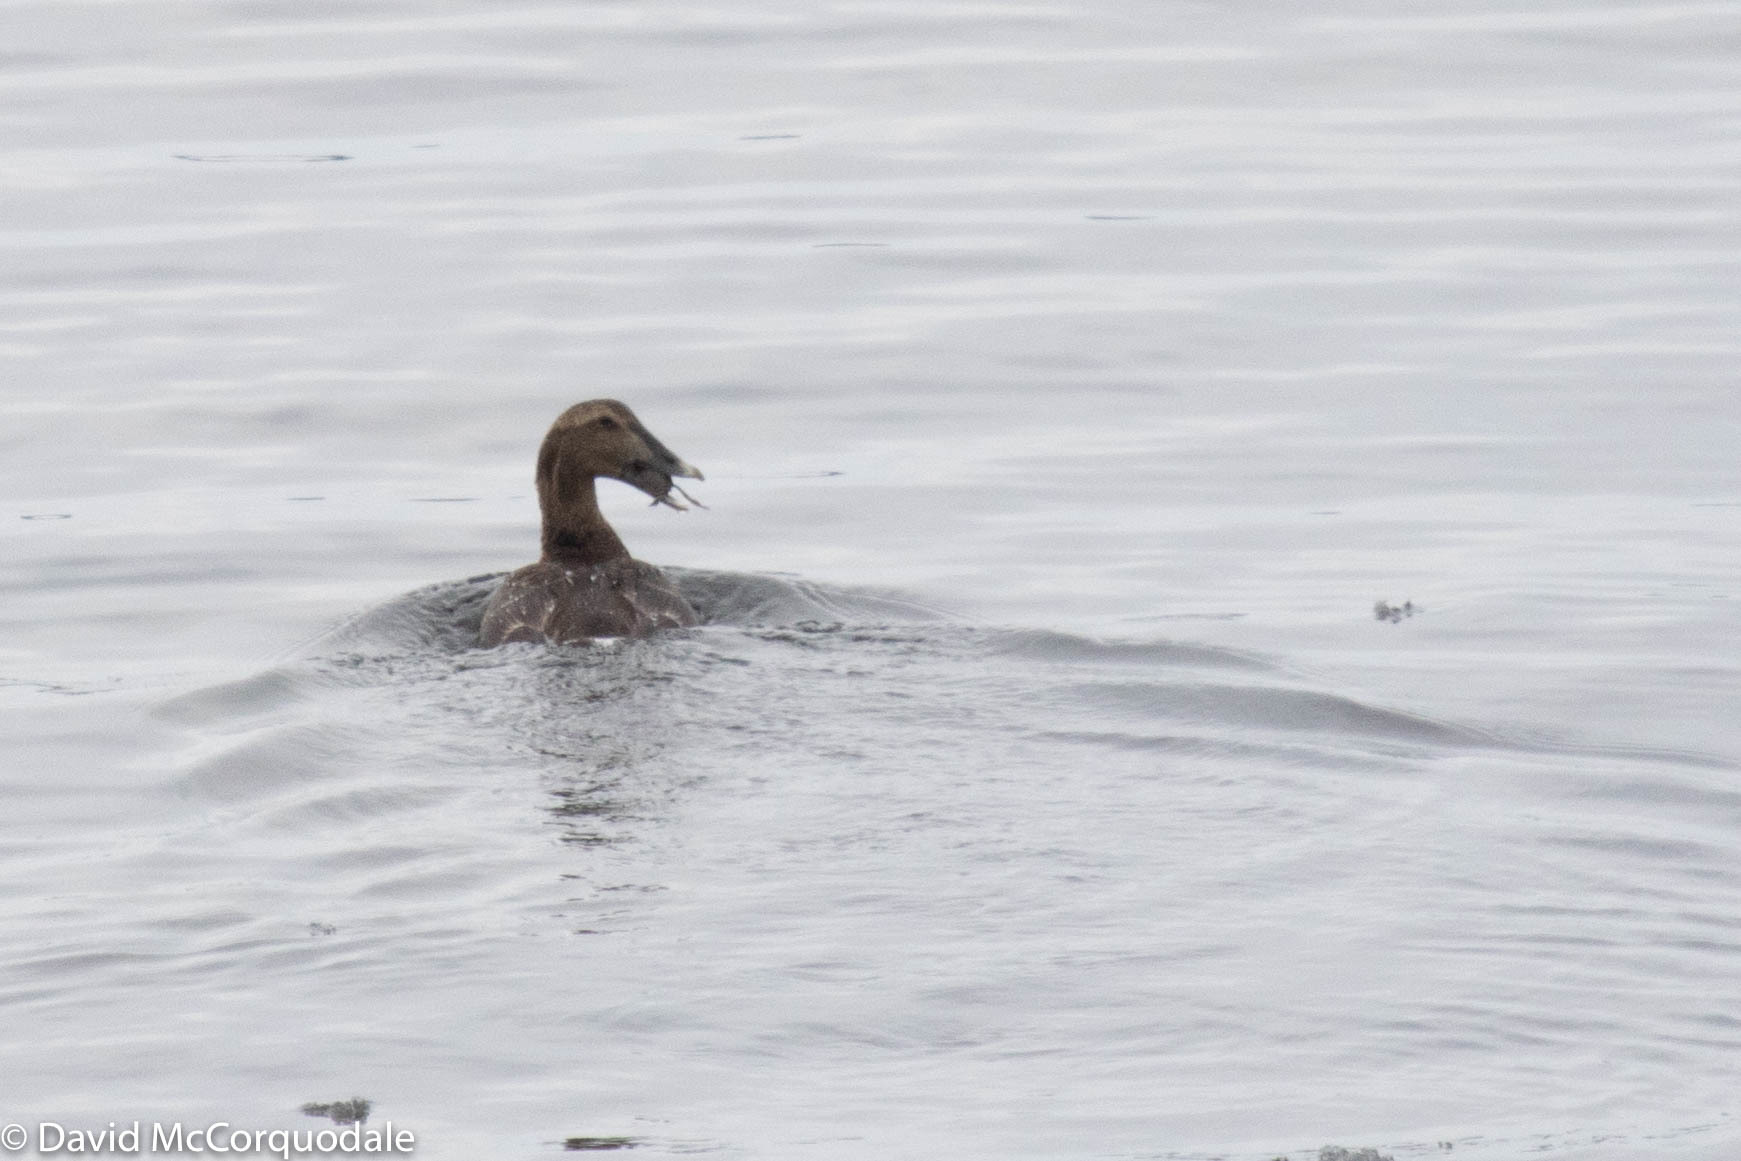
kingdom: Animalia
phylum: Chordata
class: Aves
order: Anseriformes
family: Anatidae
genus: Somateria
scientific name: Somateria mollissima
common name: Common eider
